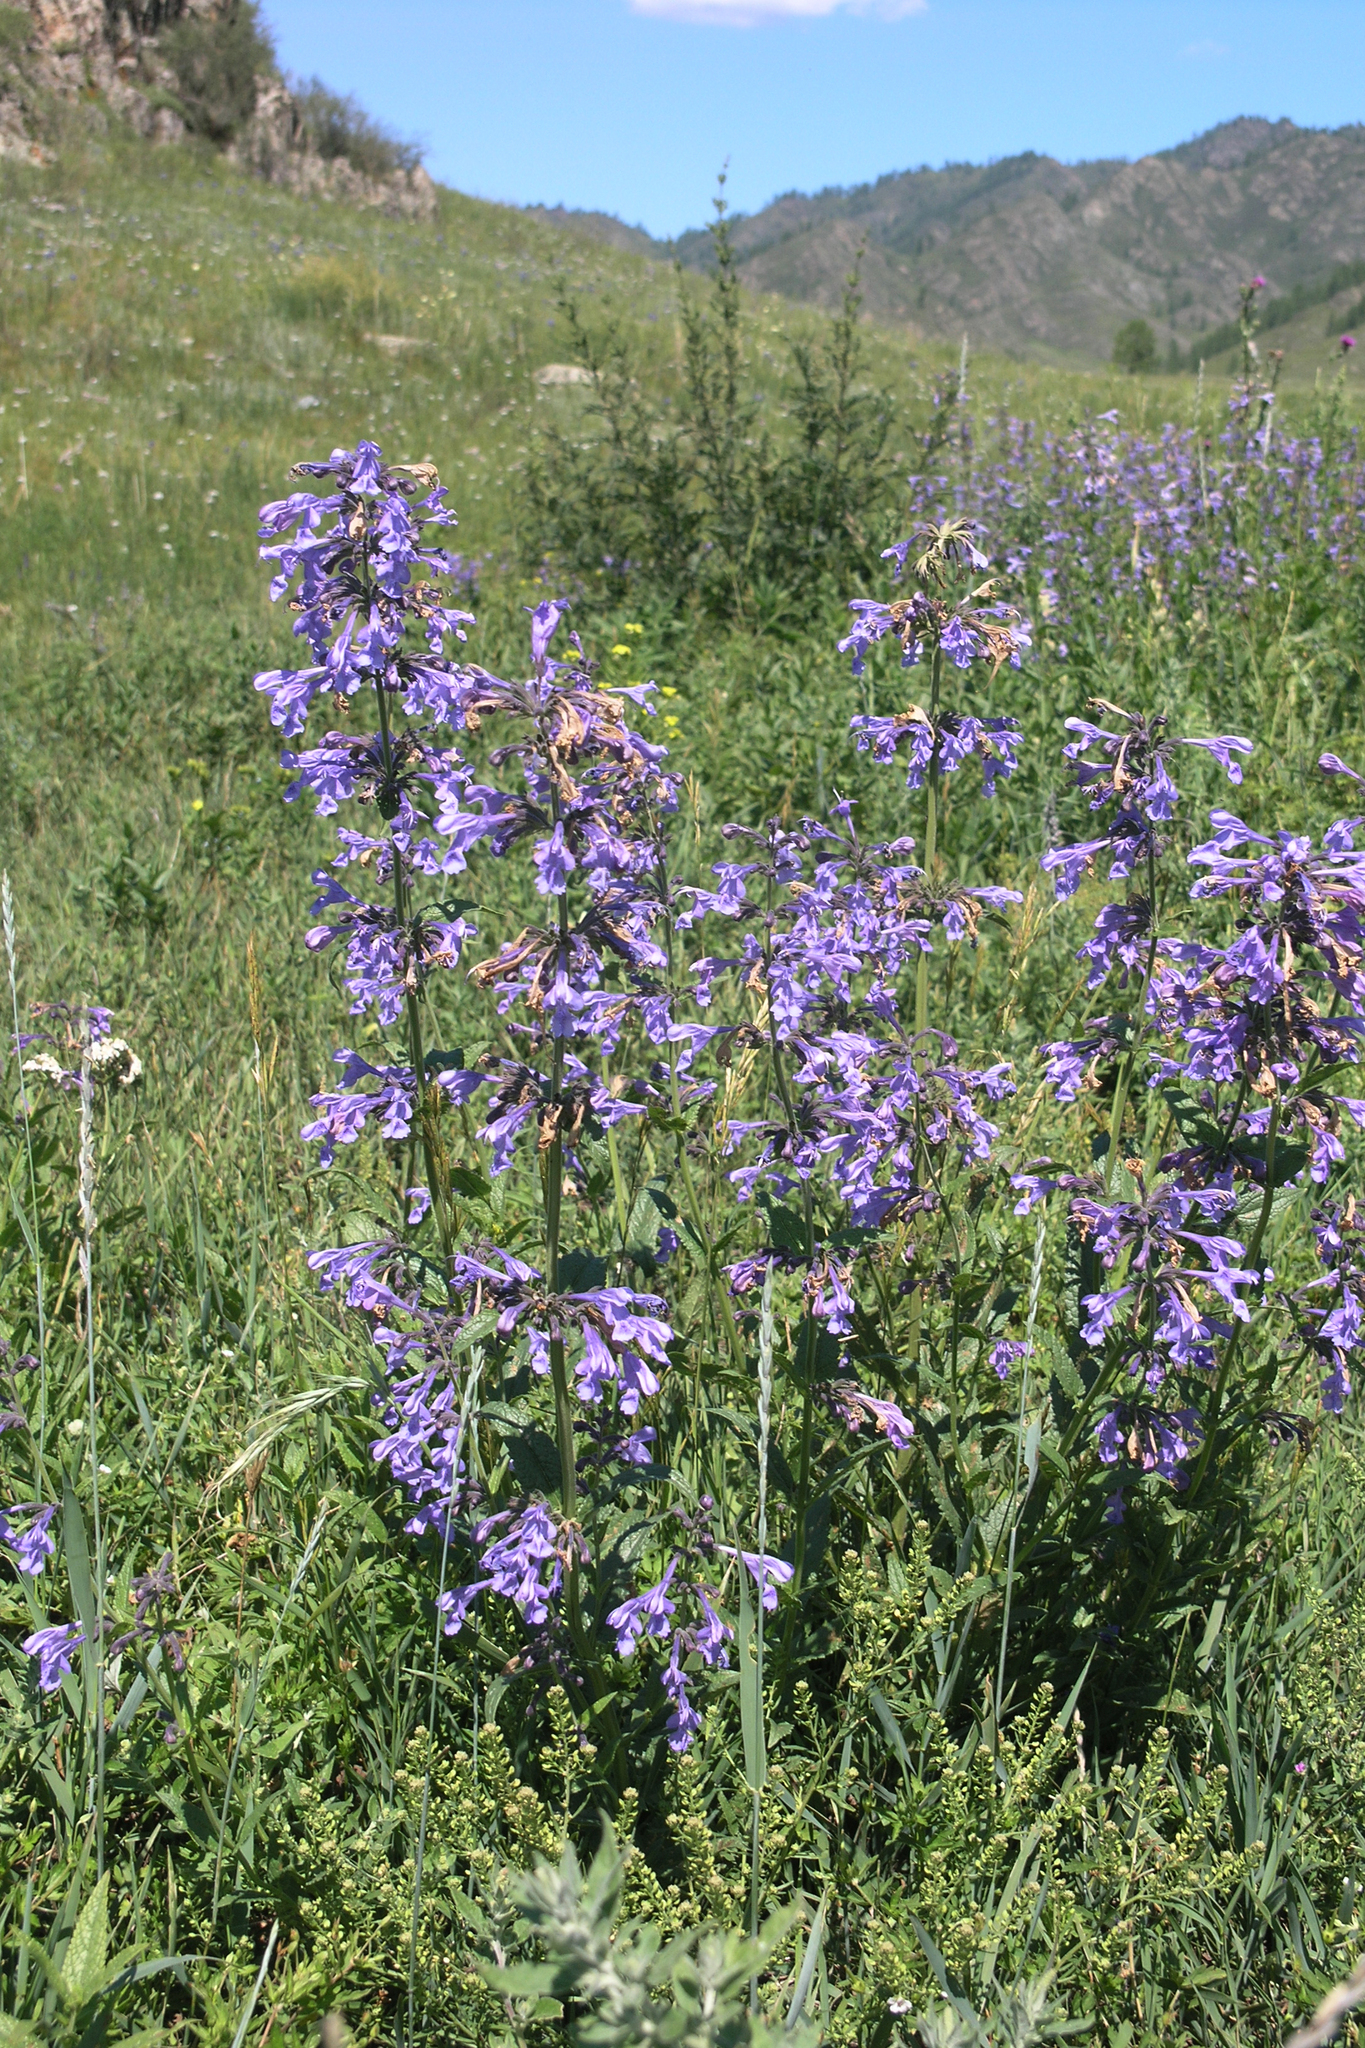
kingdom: Plantae
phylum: Tracheophyta
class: Magnoliopsida
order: Lamiales
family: Lamiaceae
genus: Nepeta
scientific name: Nepeta sibirica
